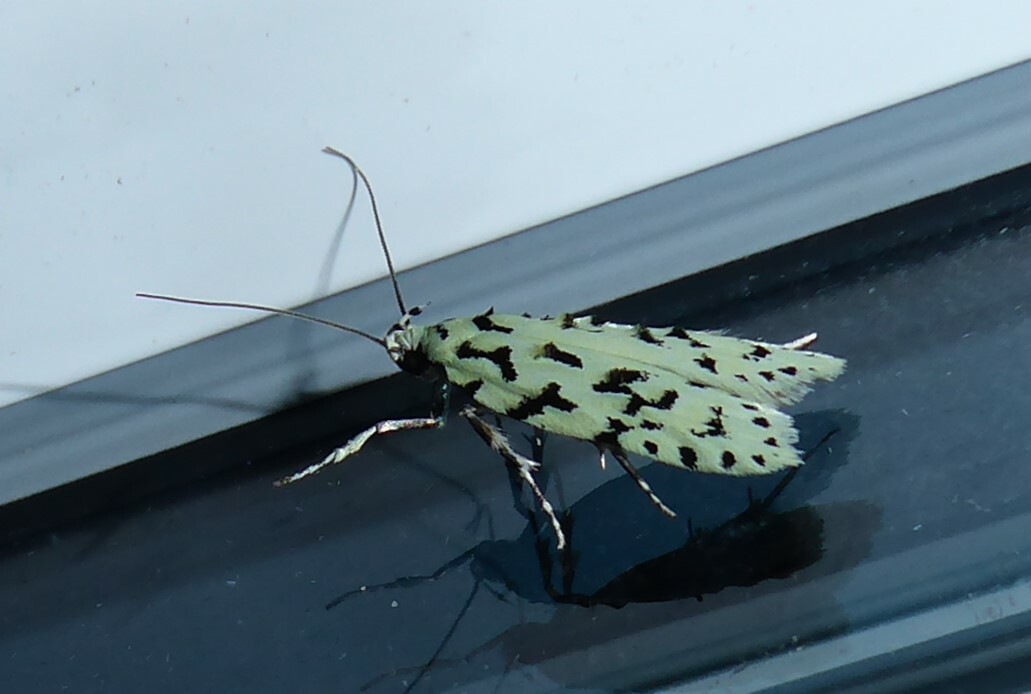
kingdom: Animalia
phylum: Arthropoda
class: Insecta
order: Lepidoptera
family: Oecophoridae
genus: Izatha
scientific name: Izatha huttoni
